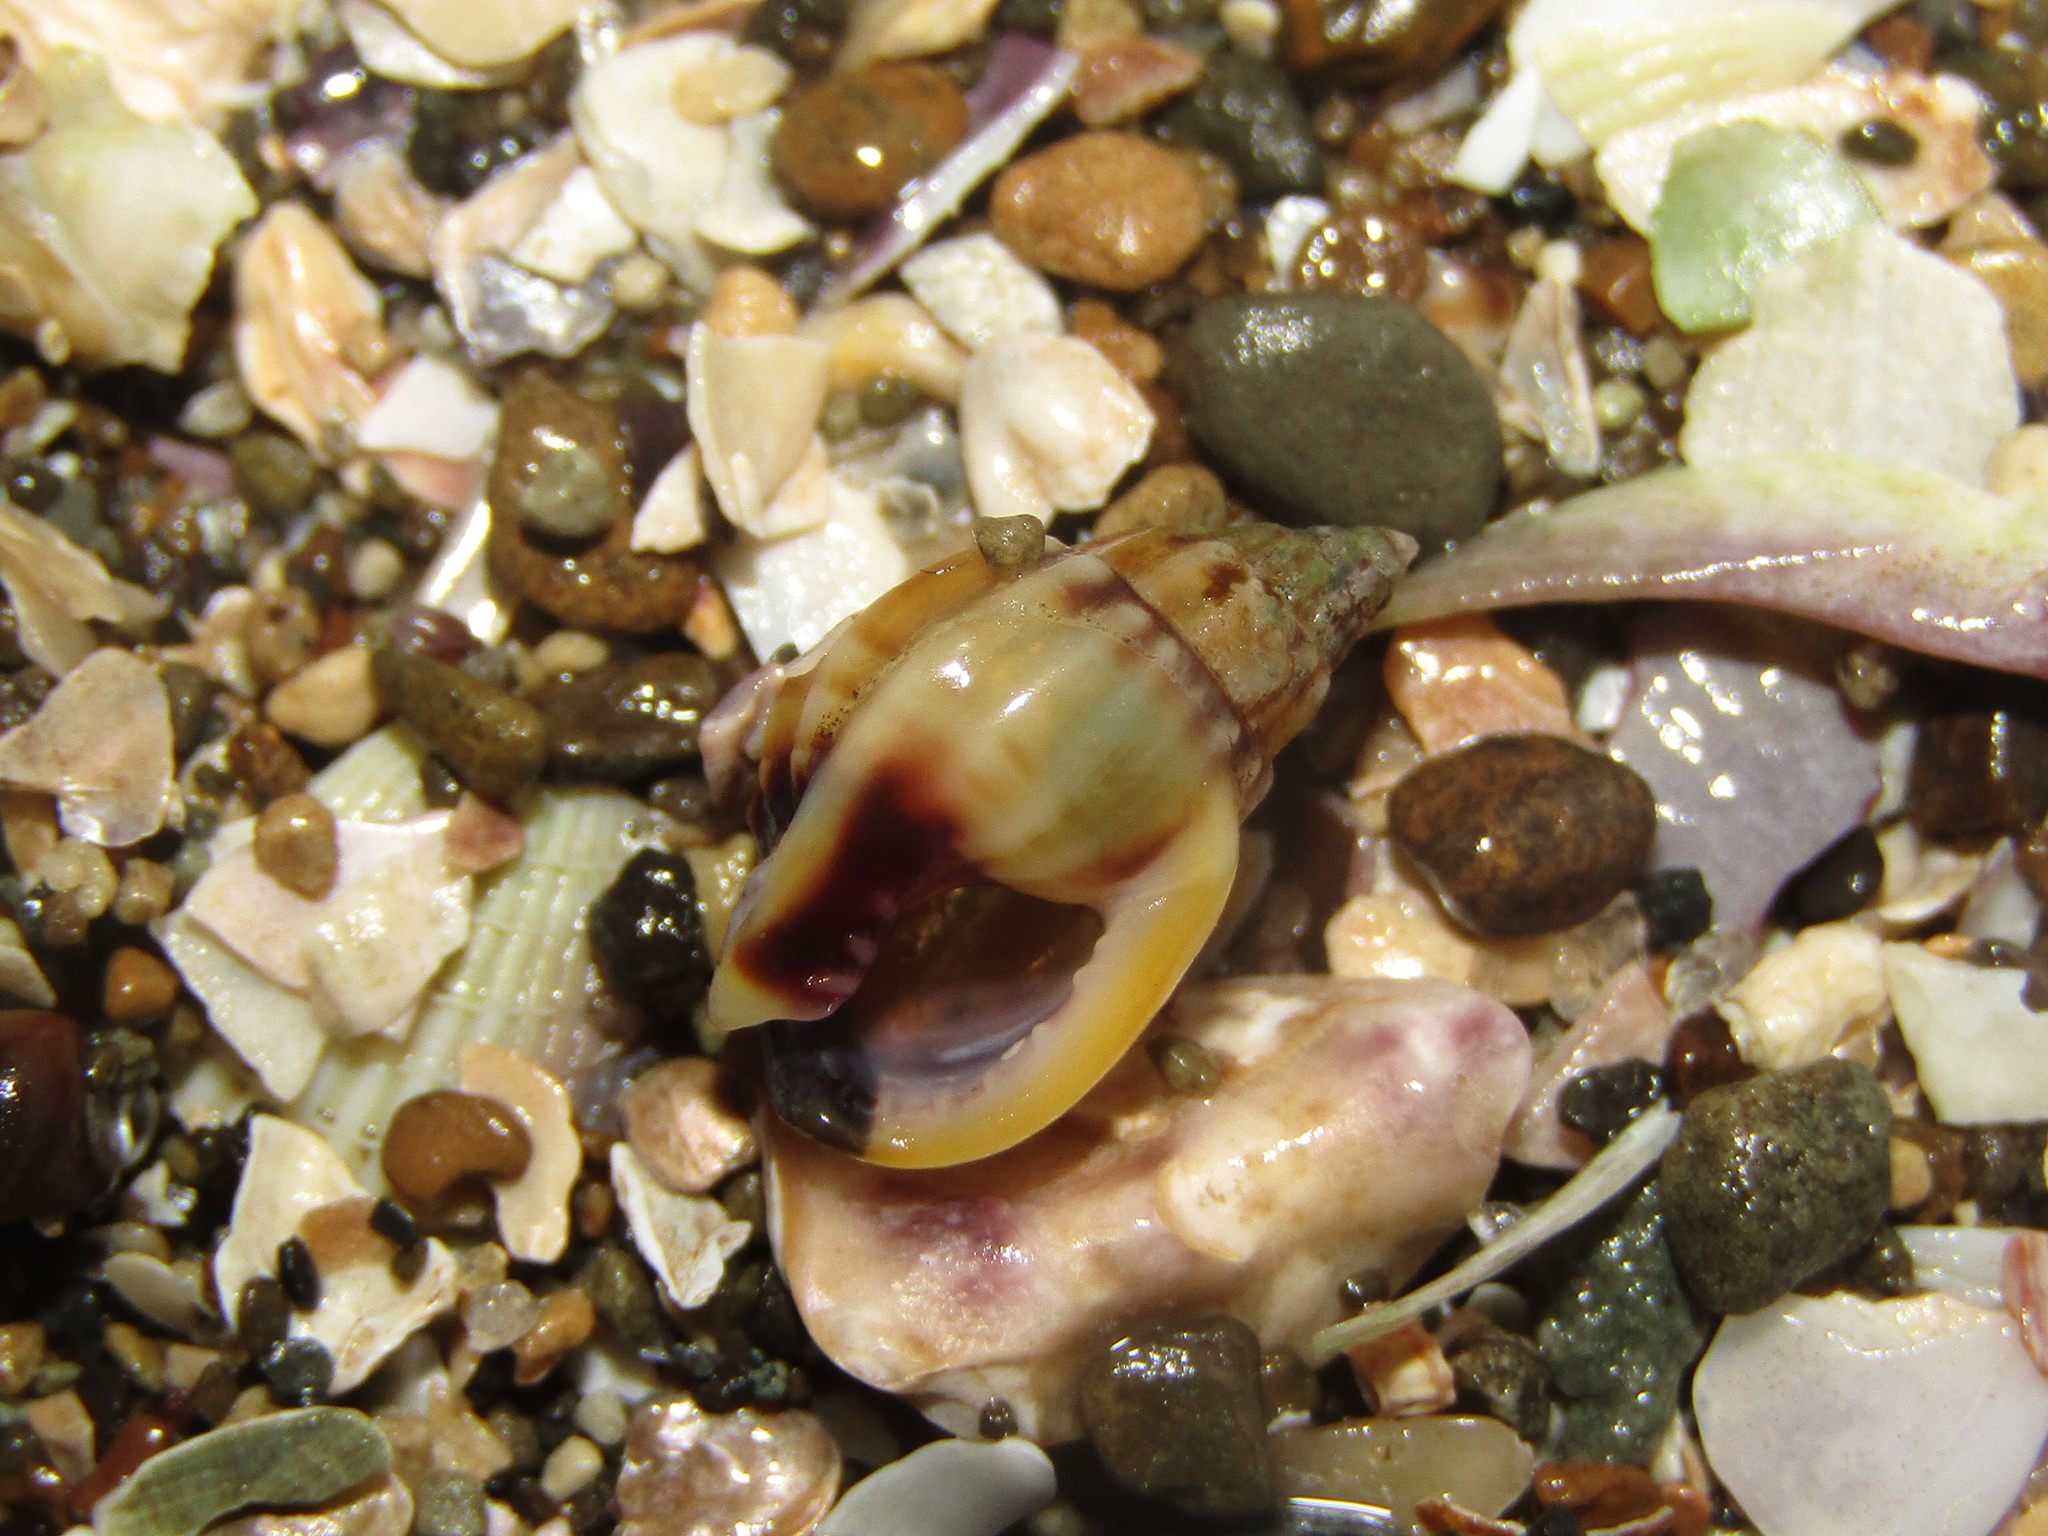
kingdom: Animalia
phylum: Mollusca
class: Gastropoda
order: Neogastropoda
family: Nassariidae
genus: Tritia
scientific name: Tritia burchardi
